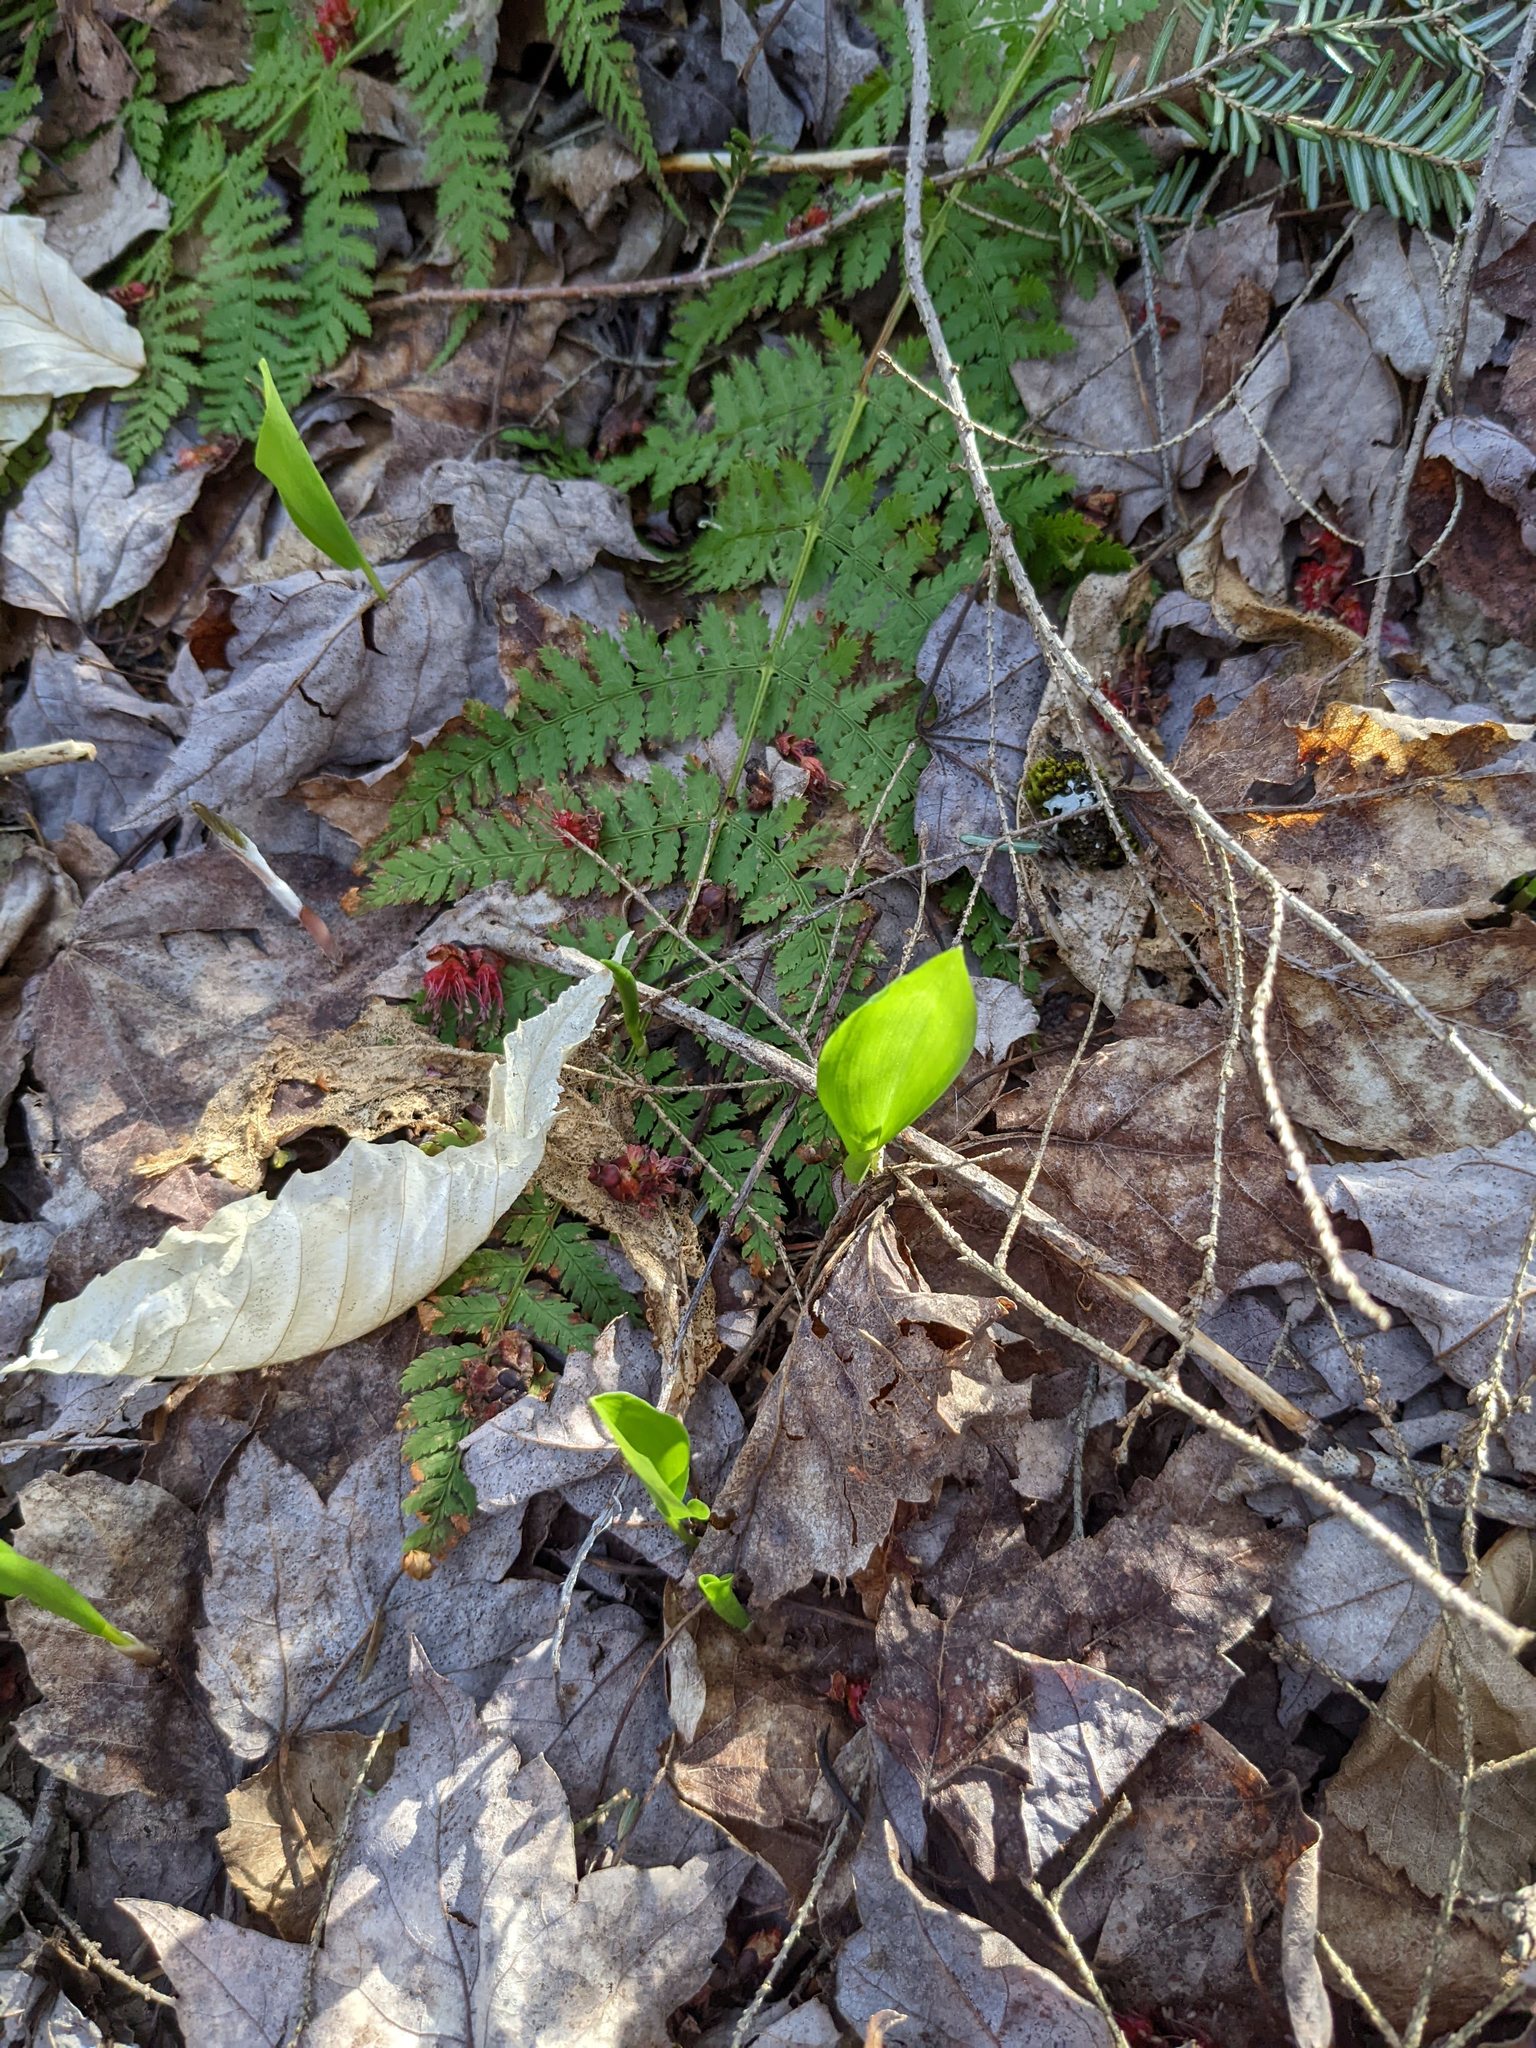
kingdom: Plantae
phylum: Tracheophyta
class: Liliopsida
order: Asparagales
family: Asparagaceae
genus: Maianthemum
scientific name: Maianthemum canadense
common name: False lily-of-the-valley
